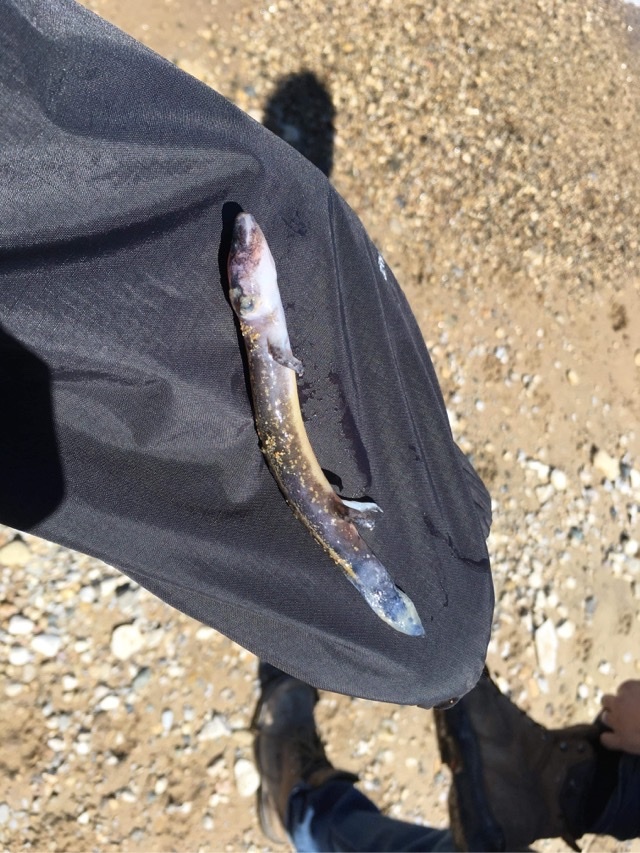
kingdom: Animalia
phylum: Chordata
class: Amphibia
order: Caudata
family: Proteidae
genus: Necturus
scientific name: Necturus maculosus
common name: Mudpuppy
